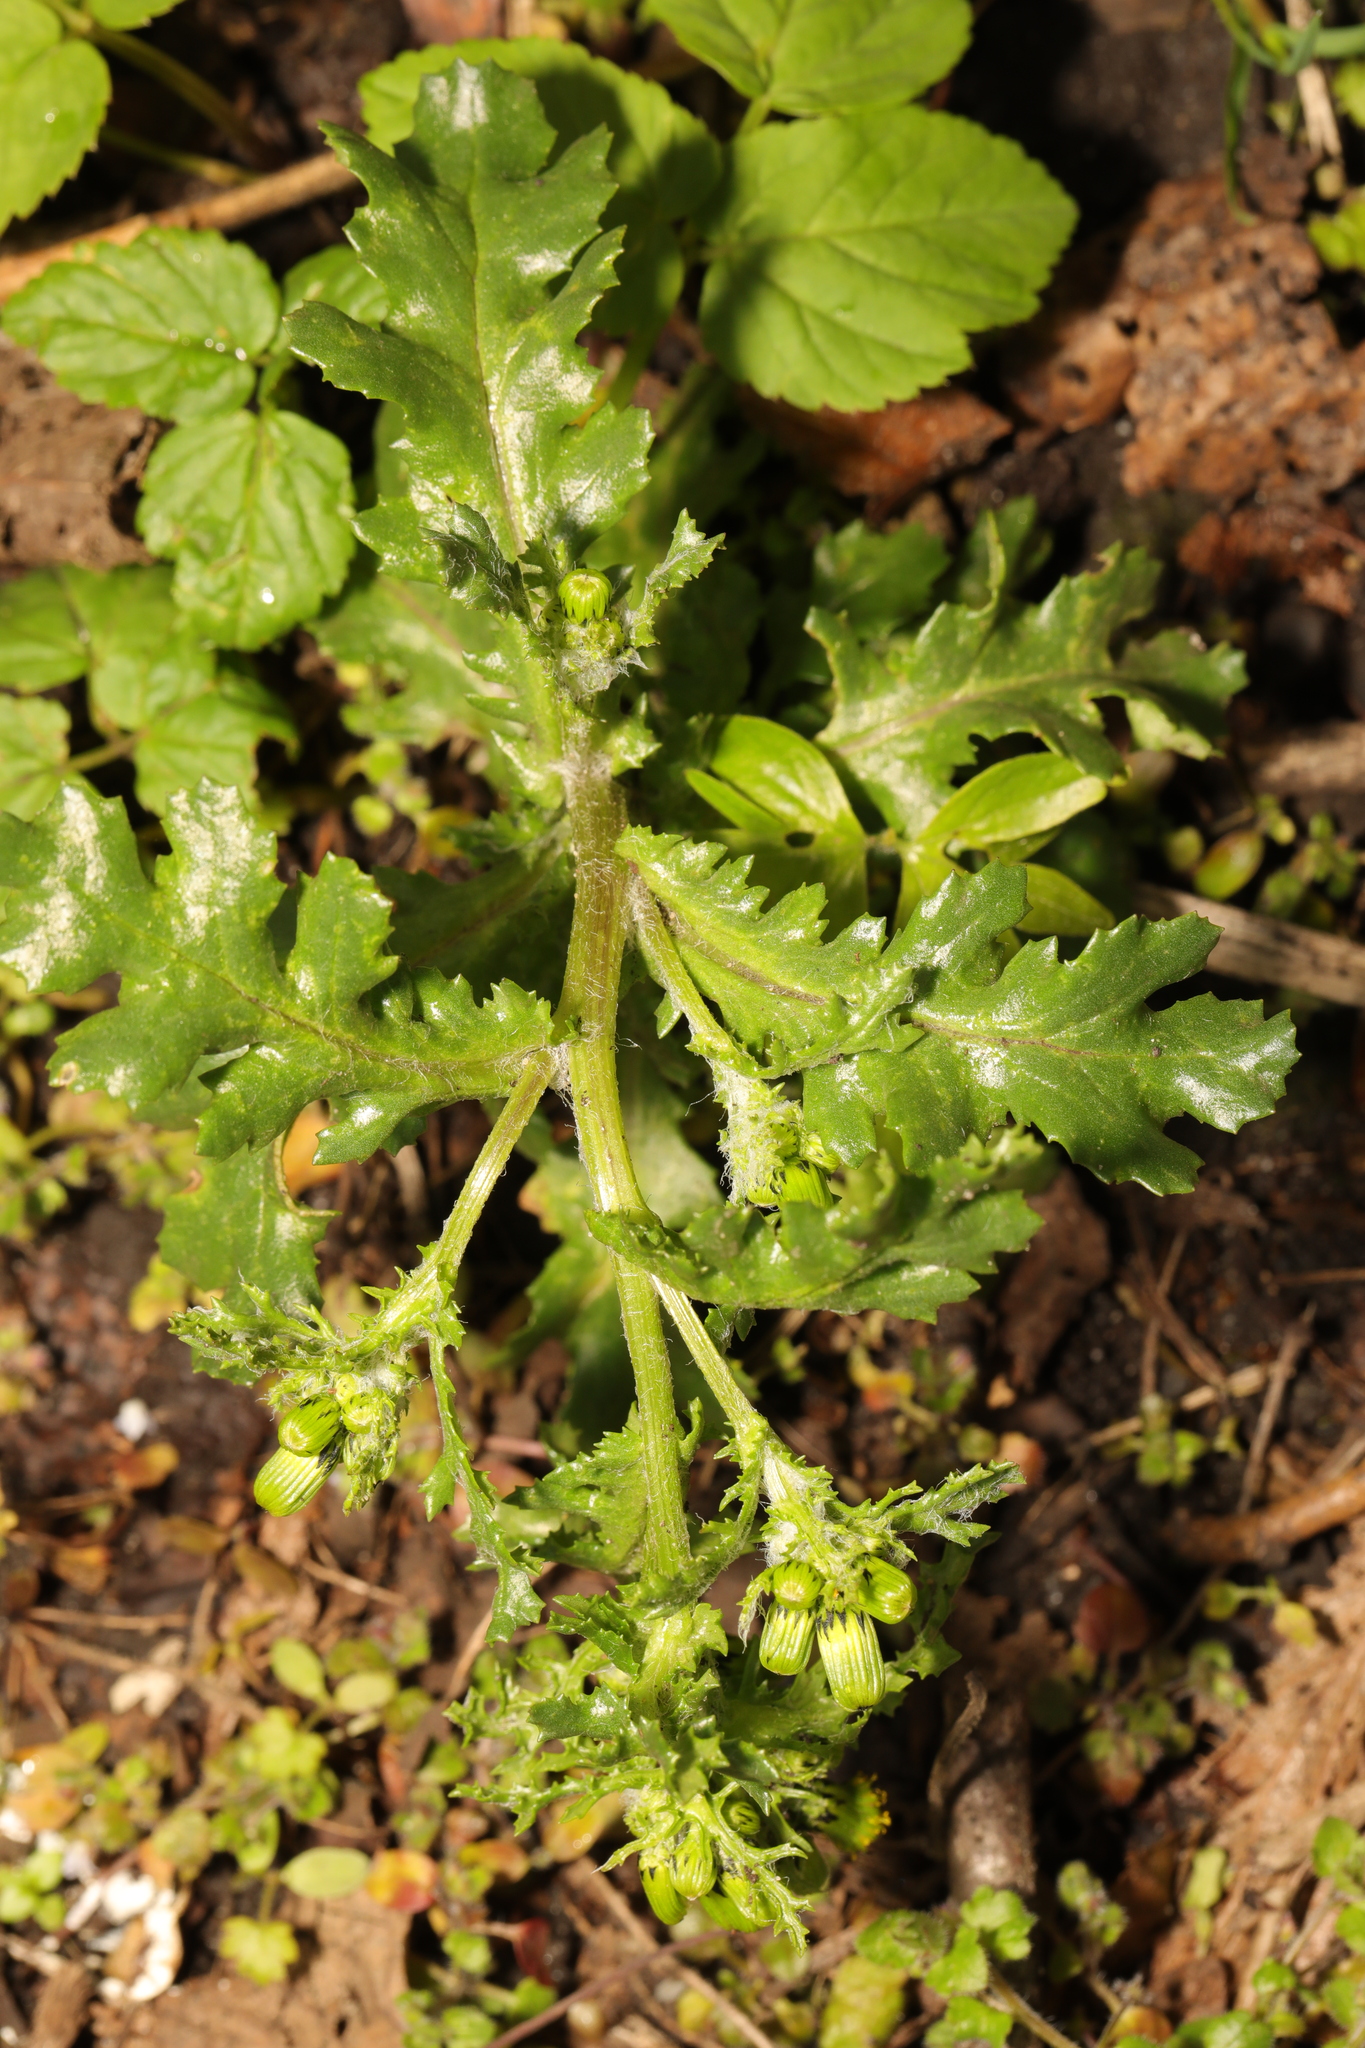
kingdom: Plantae
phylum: Tracheophyta
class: Magnoliopsida
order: Asterales
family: Asteraceae
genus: Senecio
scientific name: Senecio vulgaris
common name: Old-man-in-the-spring
